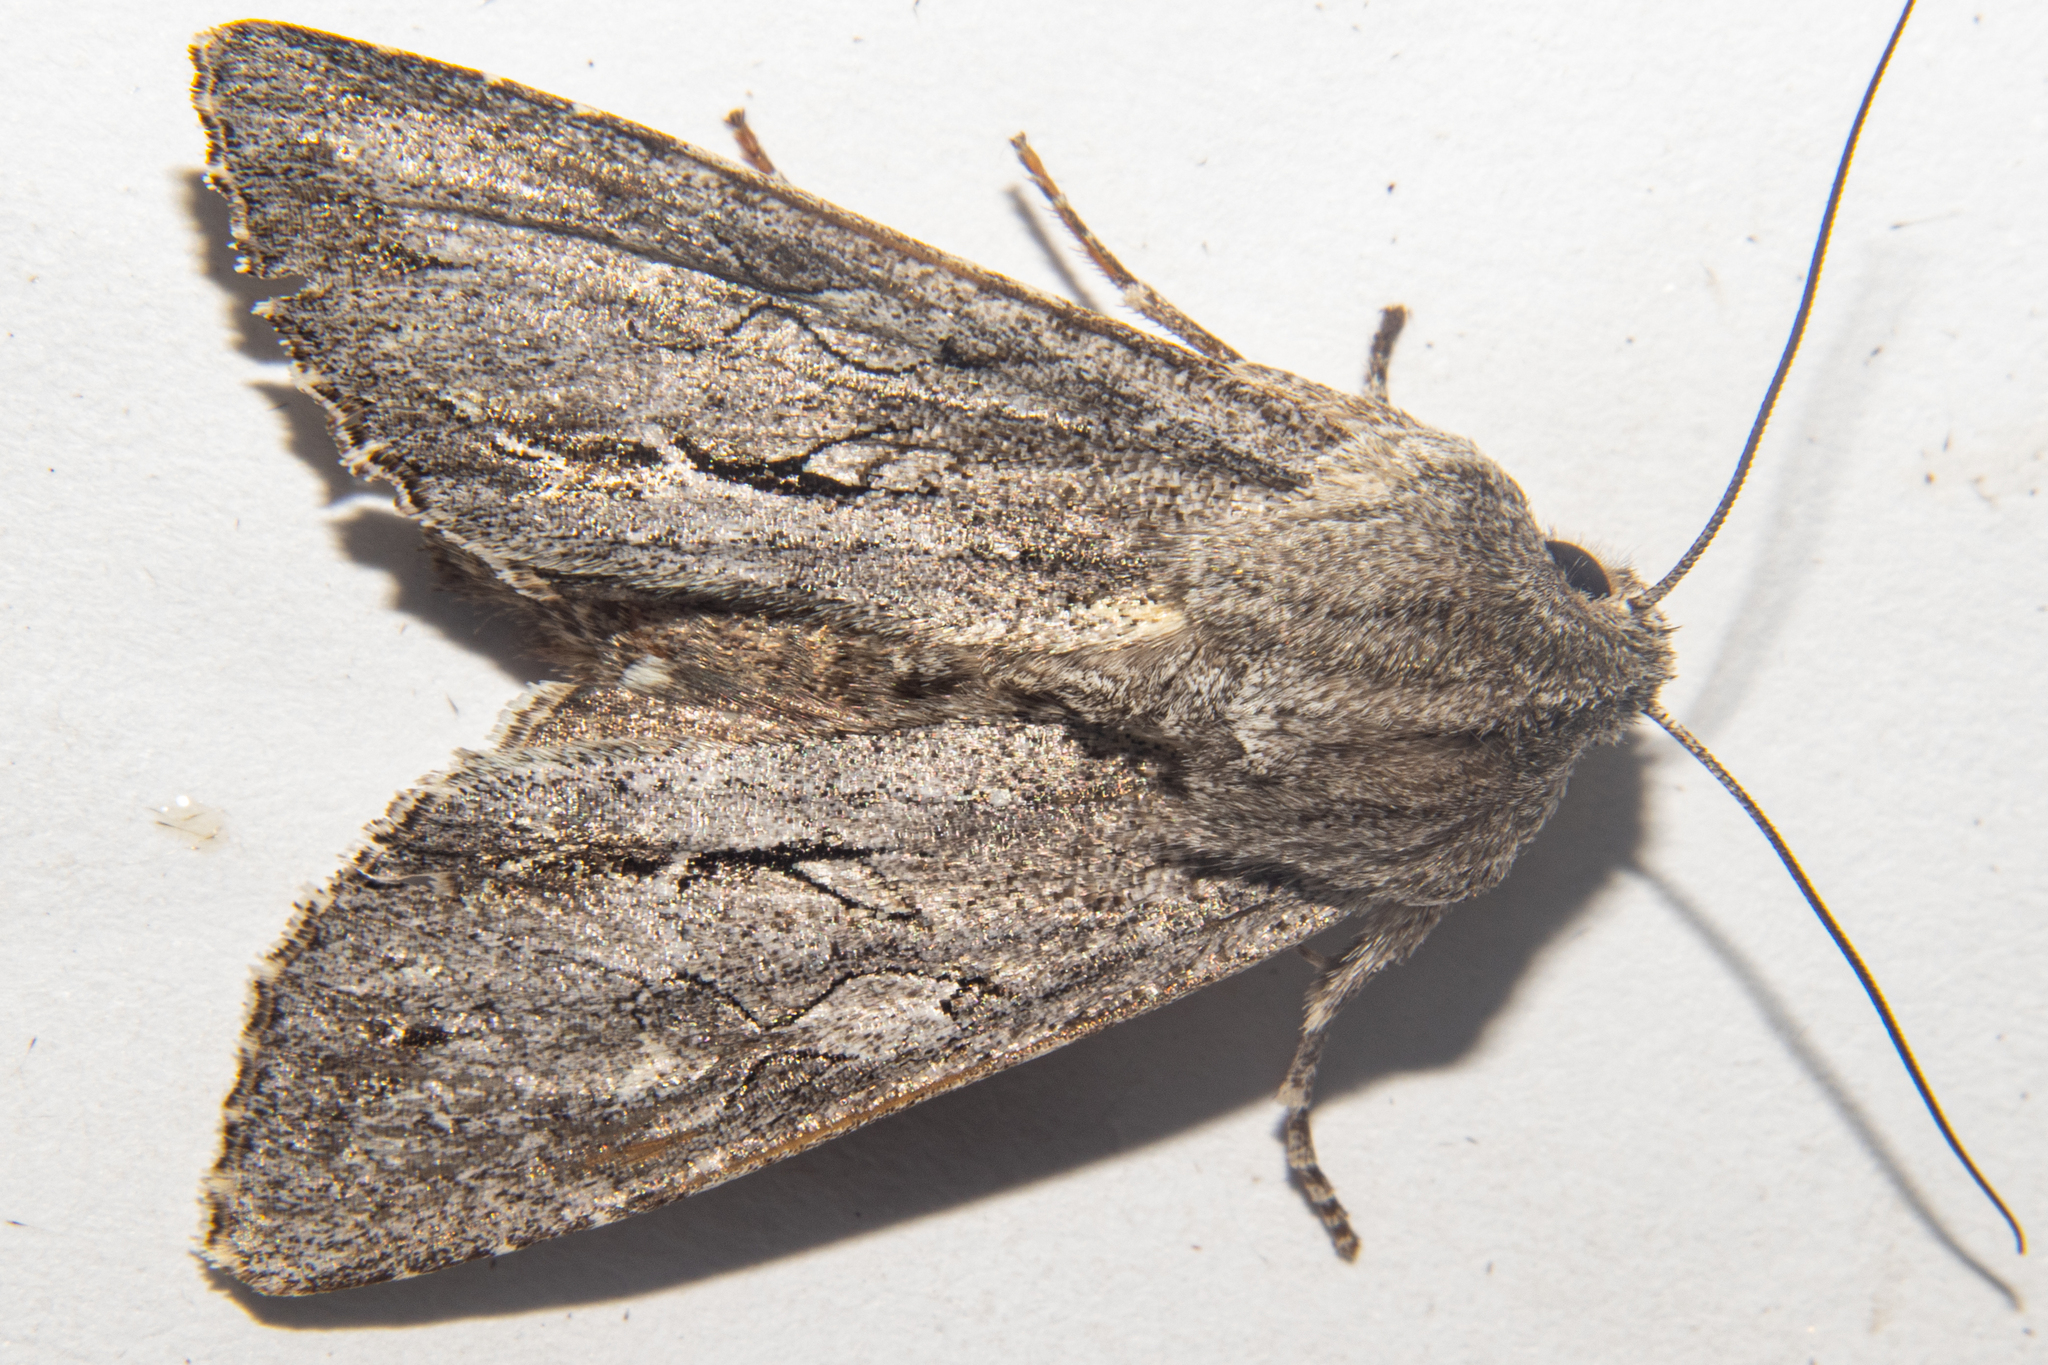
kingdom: Animalia
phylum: Arthropoda
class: Insecta
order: Lepidoptera
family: Noctuidae
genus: Ichneutica
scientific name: Ichneutica
